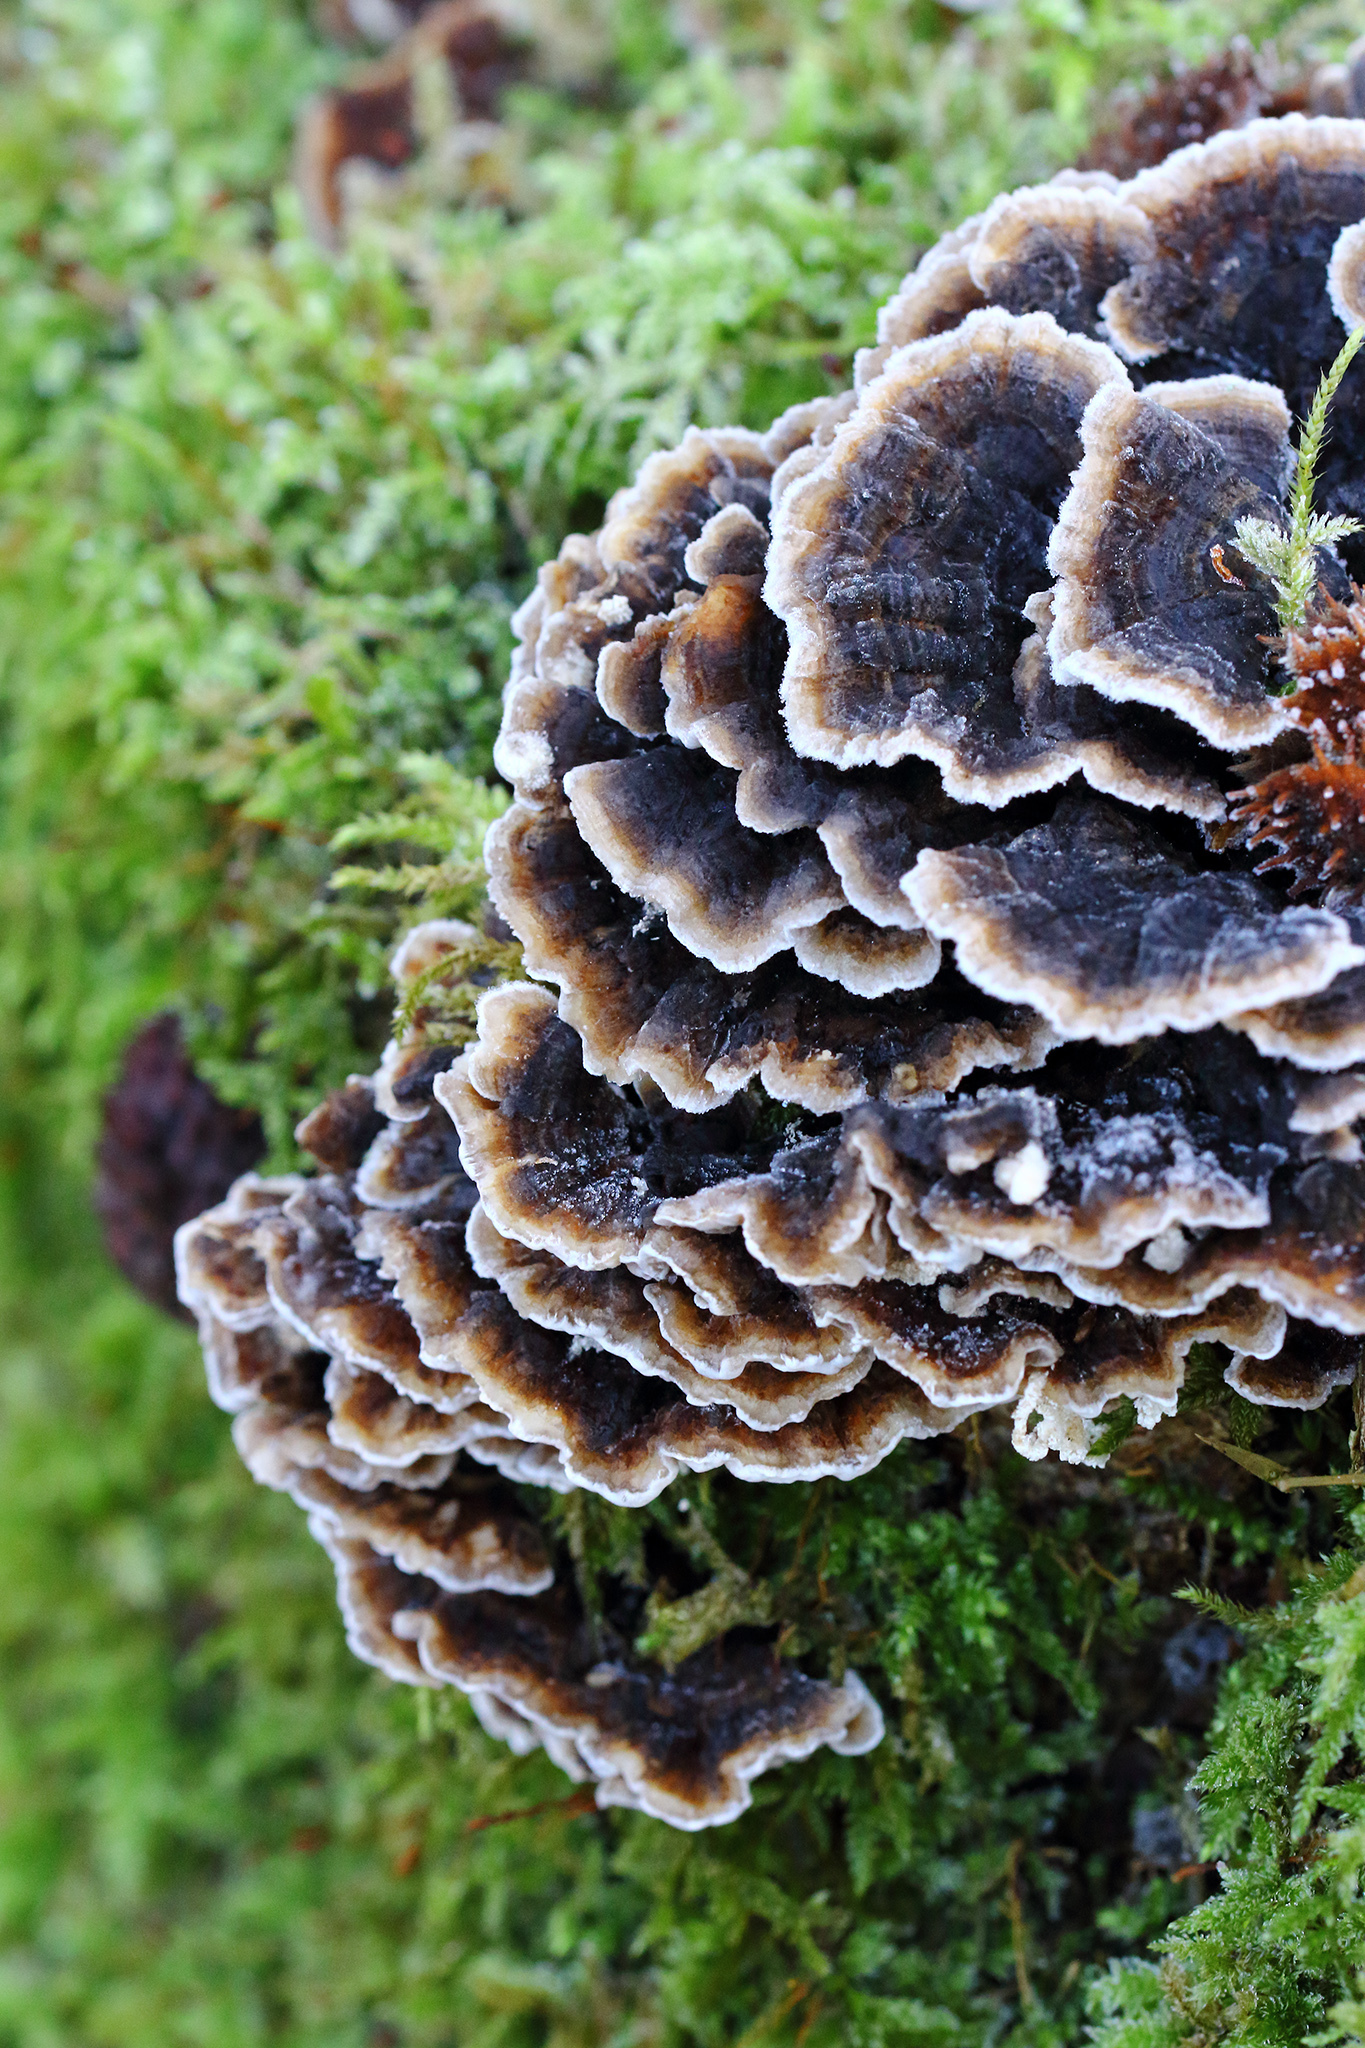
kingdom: Fungi
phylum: Basidiomycota
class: Agaricomycetes
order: Polyporales
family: Polyporaceae
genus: Trametes
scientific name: Trametes versicolor
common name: Turkeytail
